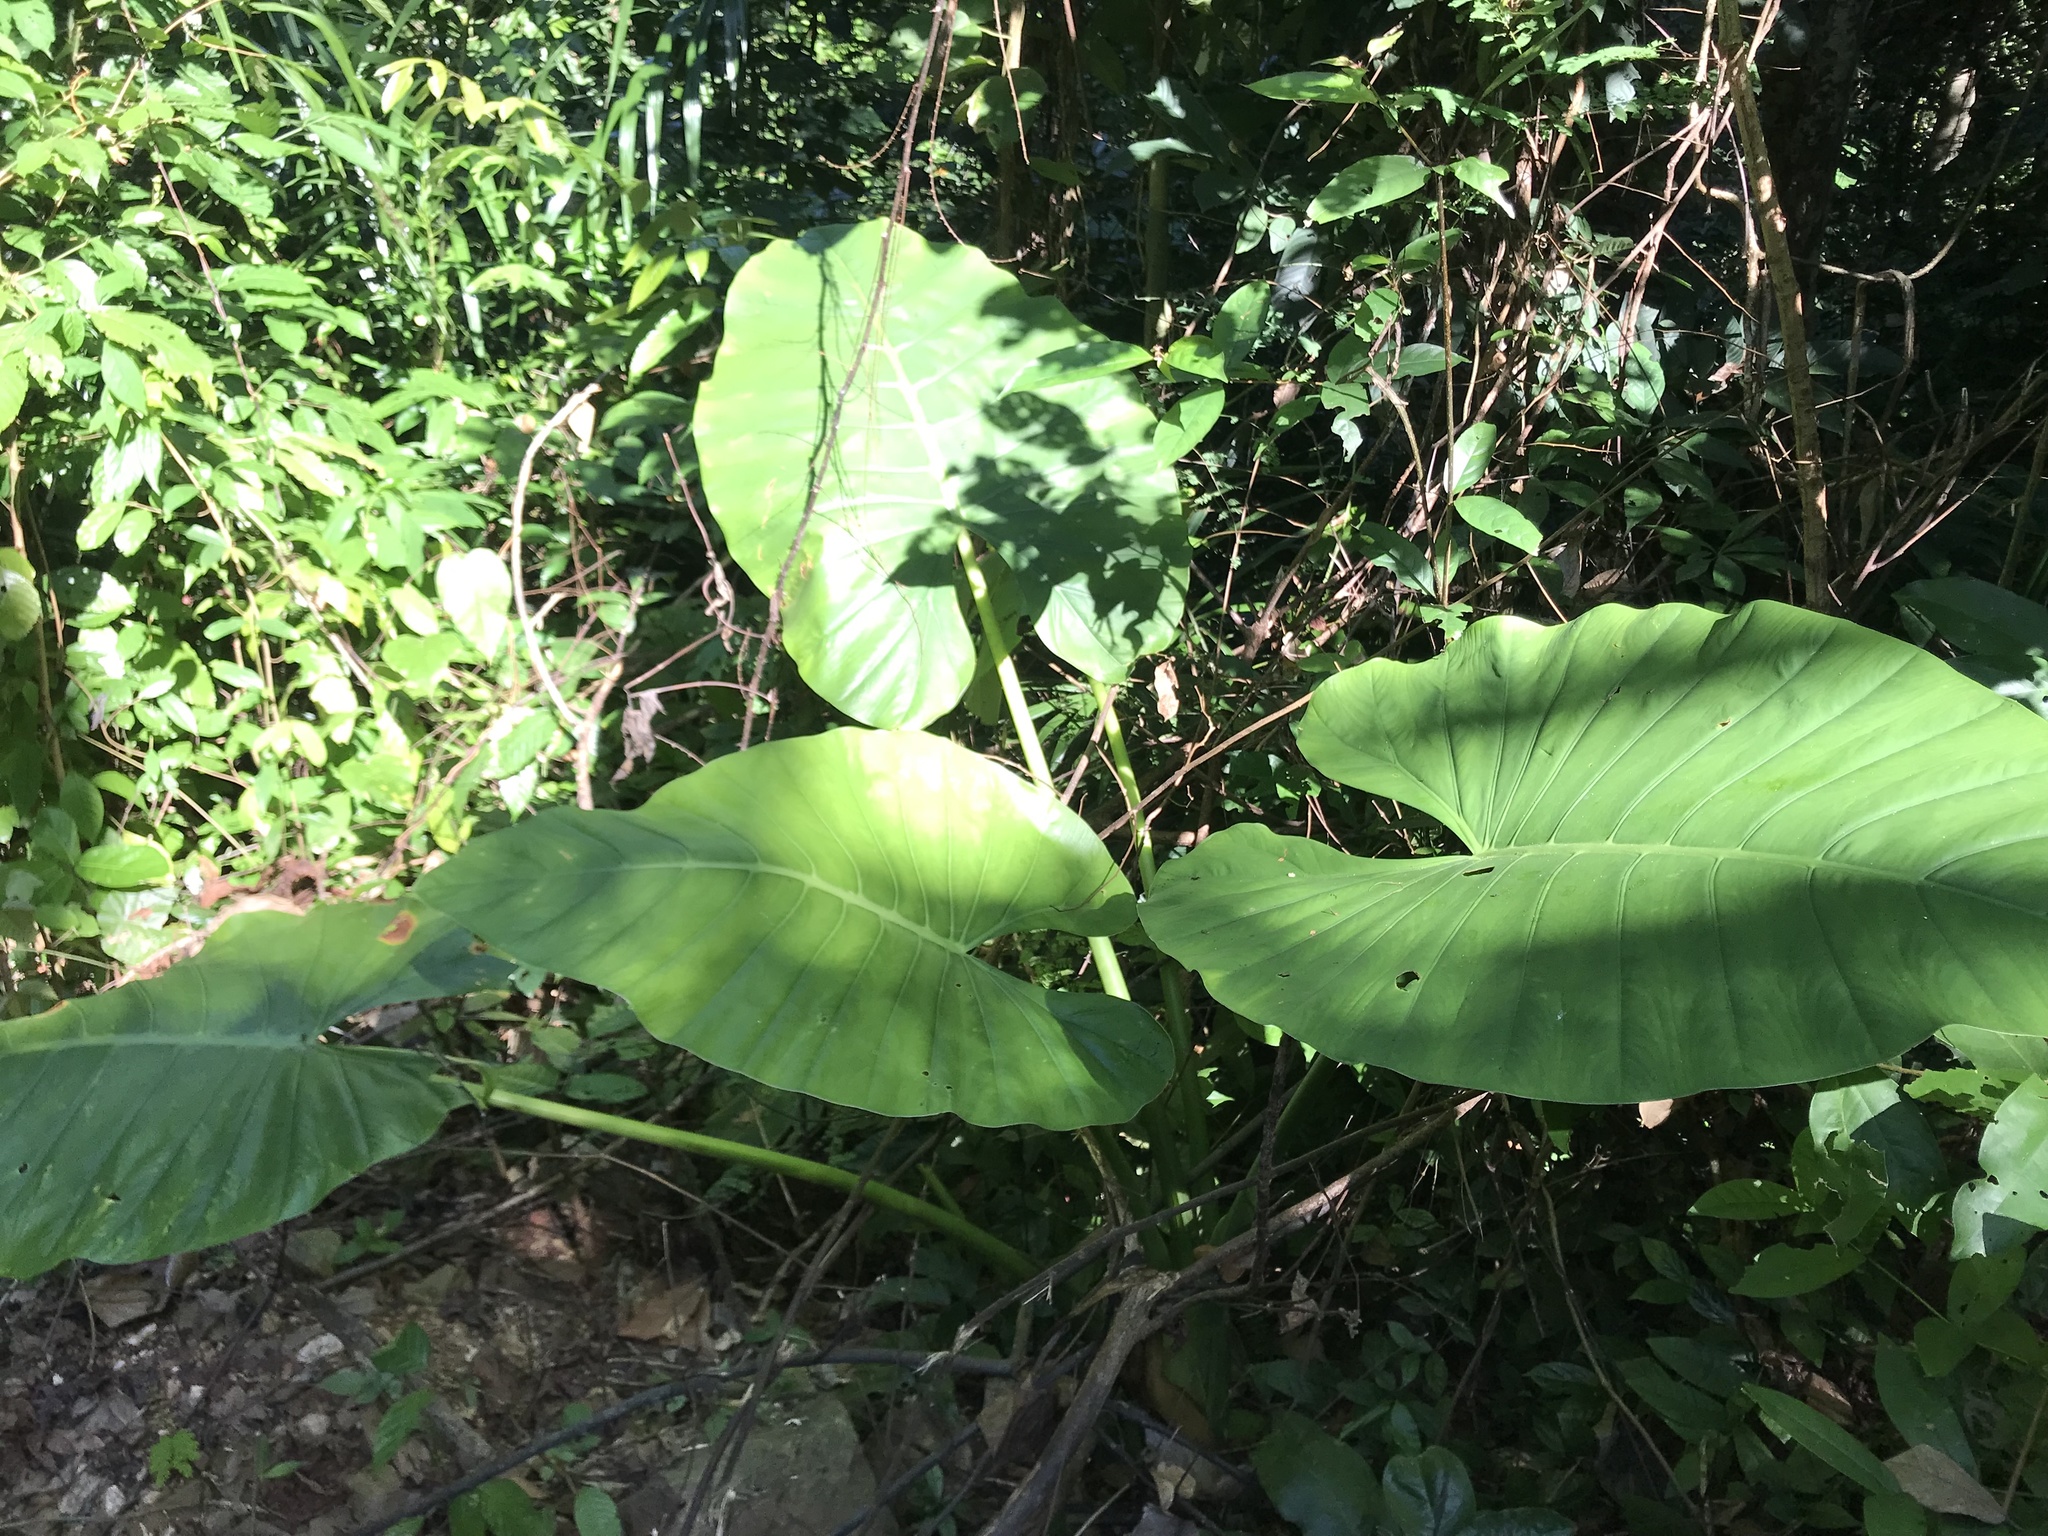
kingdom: Plantae
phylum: Tracheophyta
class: Liliopsida
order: Alismatales
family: Araceae
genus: Alocasia
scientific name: Alocasia macrorrhizos
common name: Giant taro
